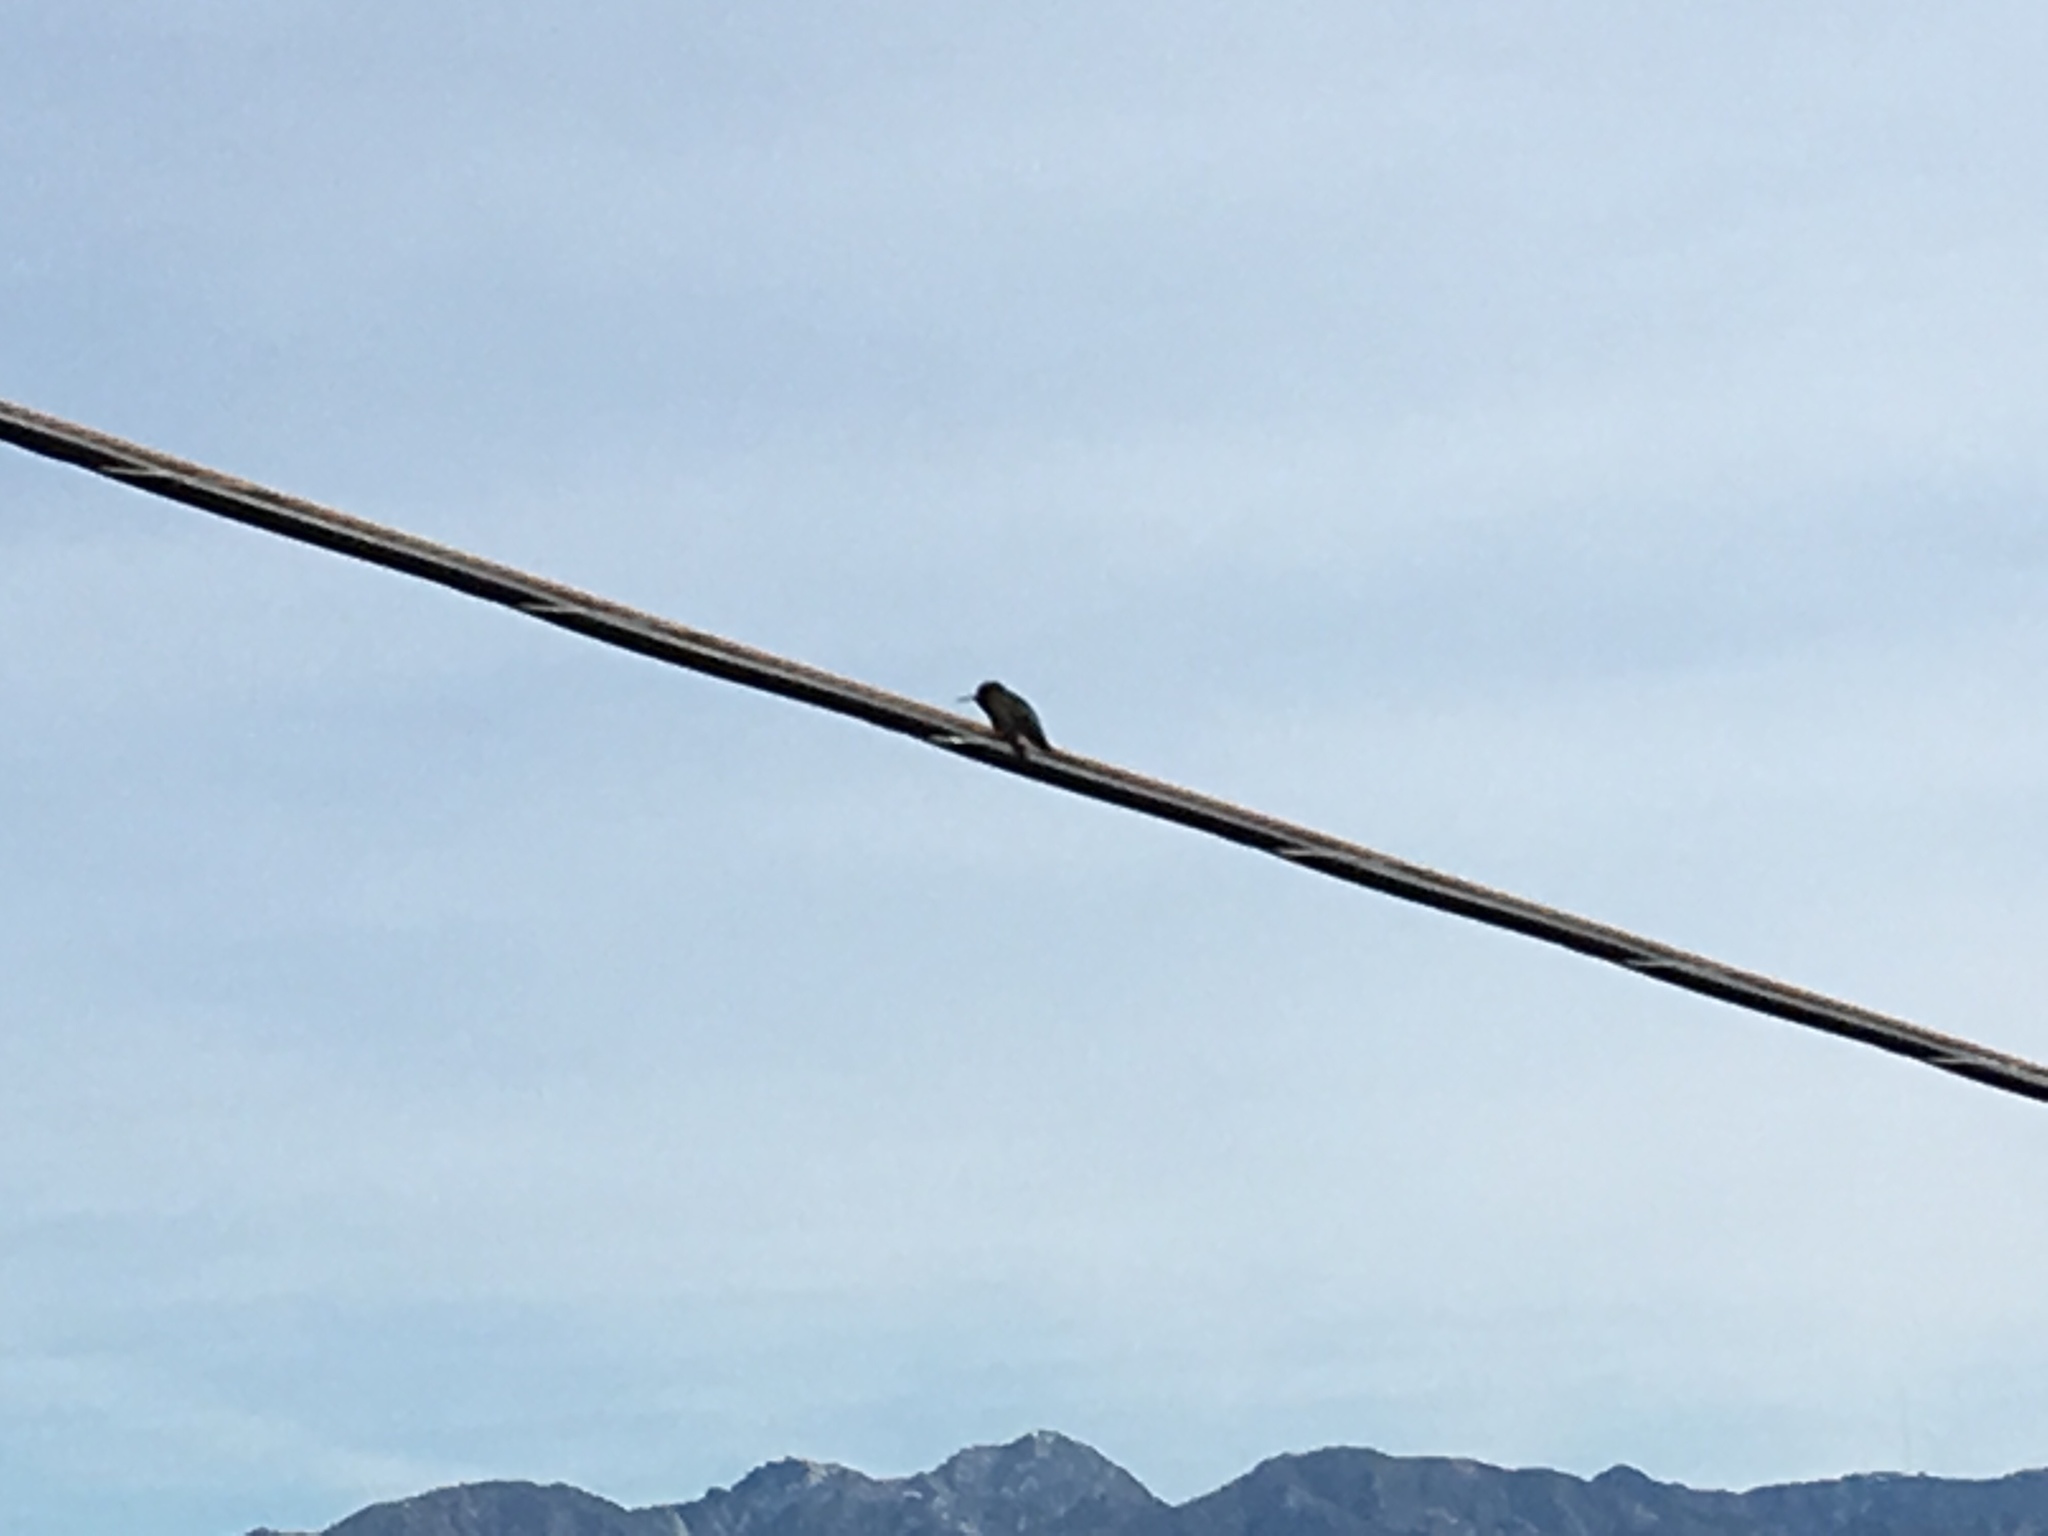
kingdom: Animalia
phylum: Chordata
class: Aves
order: Apodiformes
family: Trochilidae
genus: Calypte
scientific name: Calypte anna
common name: Anna's hummingbird
